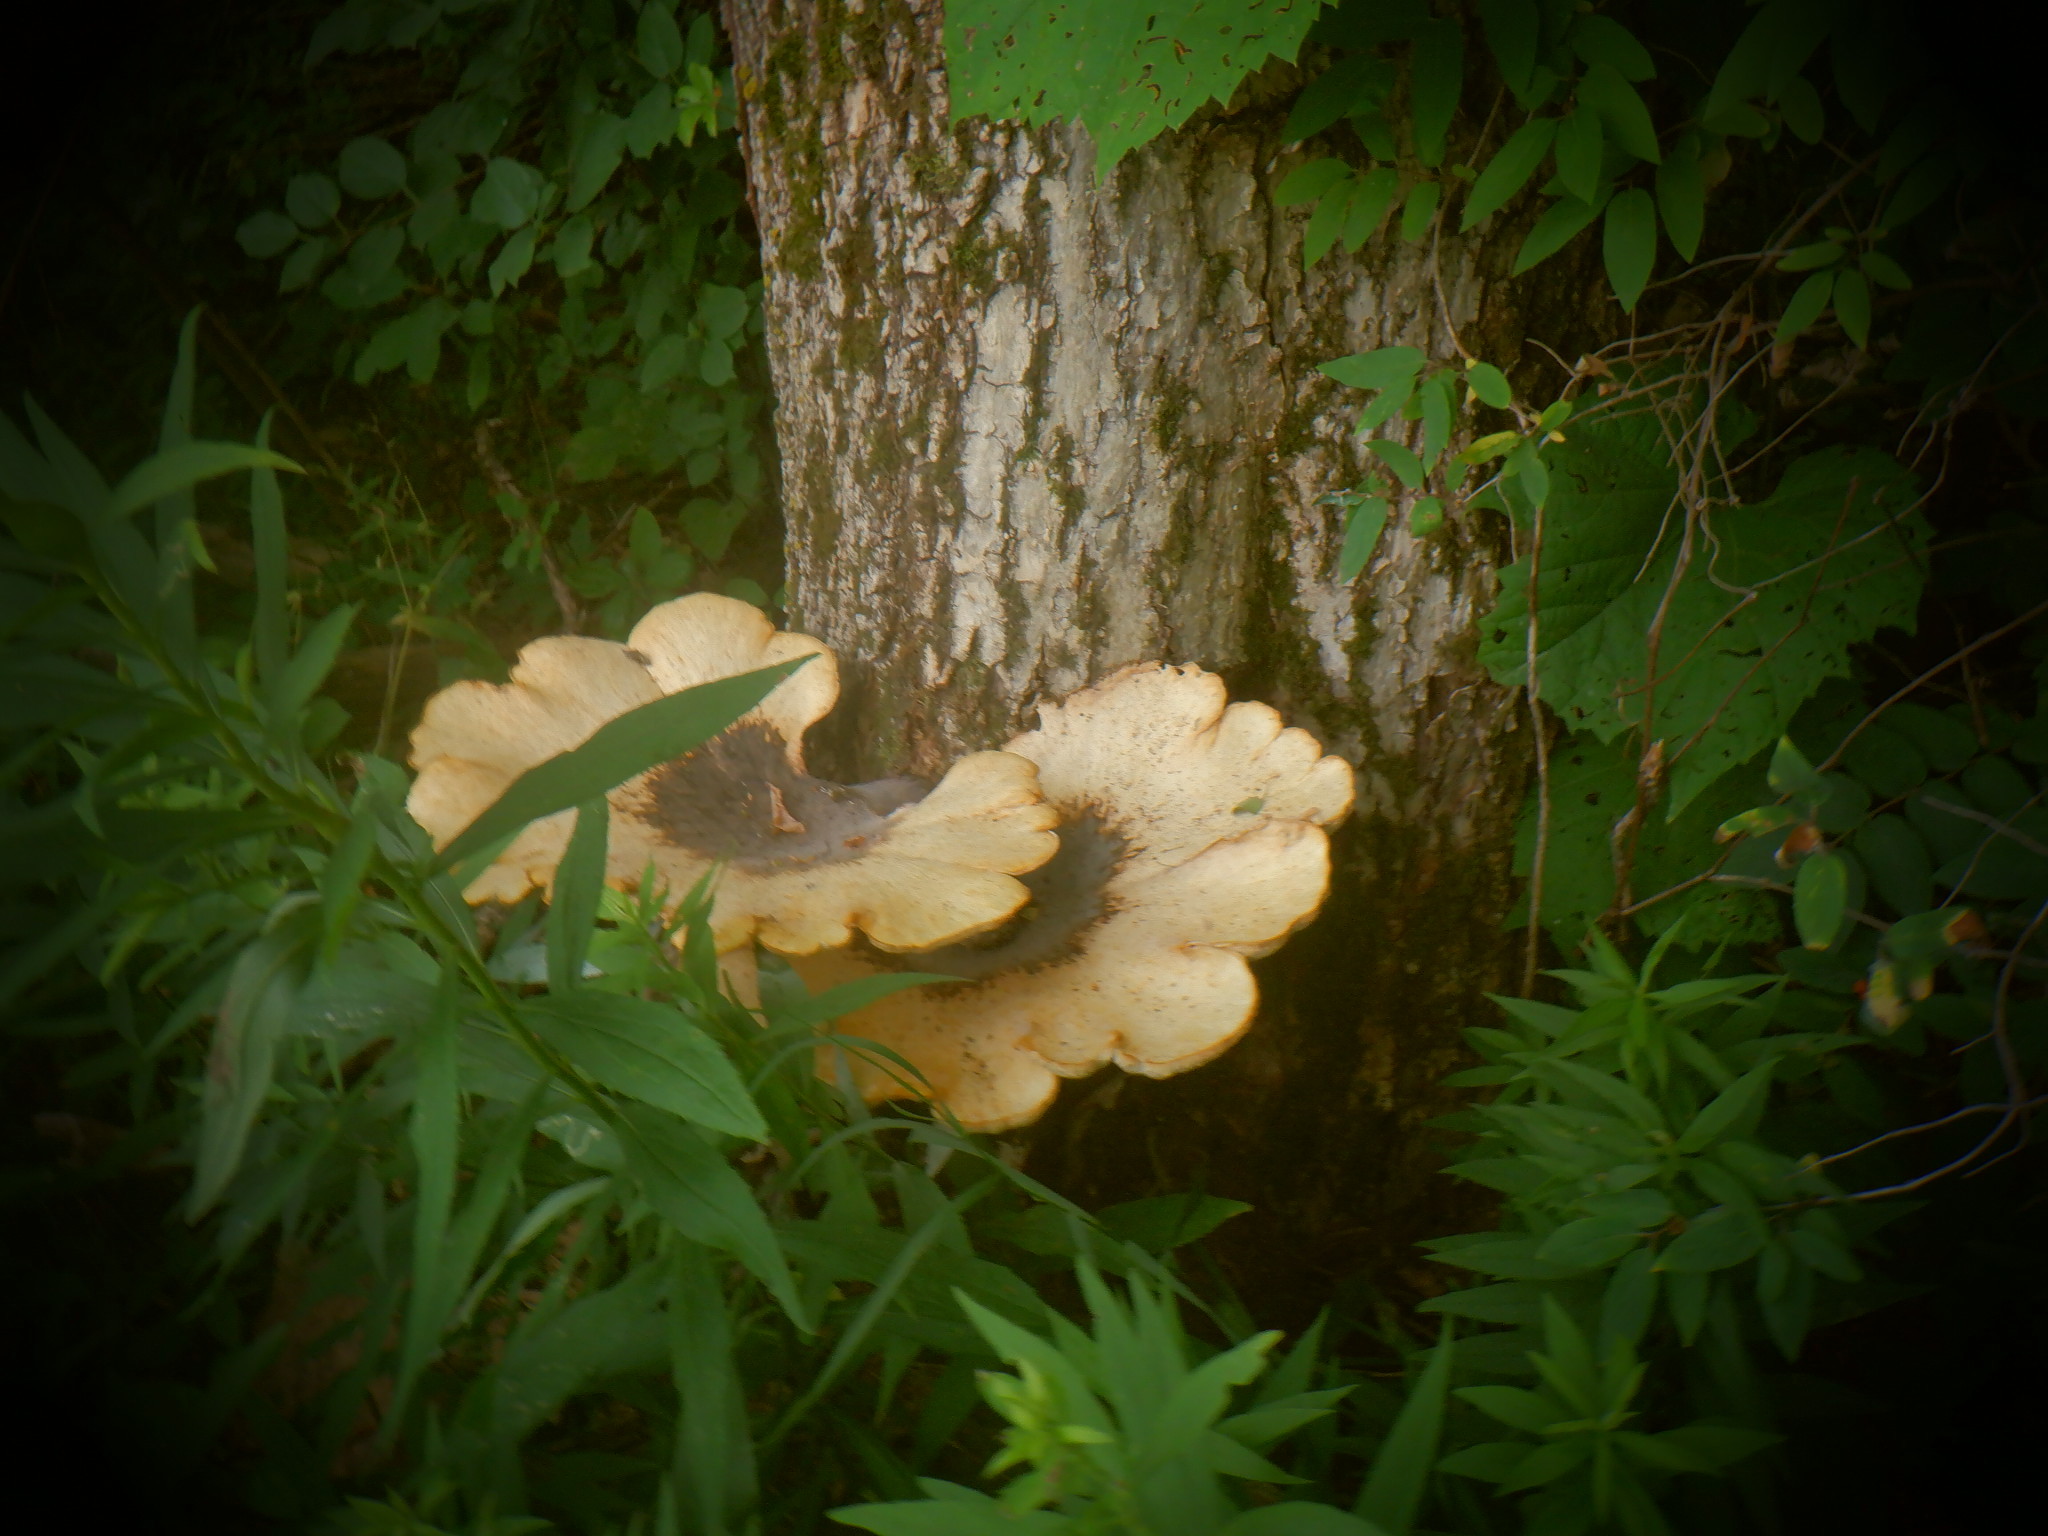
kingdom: Fungi
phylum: Basidiomycota
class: Agaricomycetes
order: Polyporales
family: Polyporaceae
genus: Cerioporus
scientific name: Cerioporus squamosus
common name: Dryad's saddle
